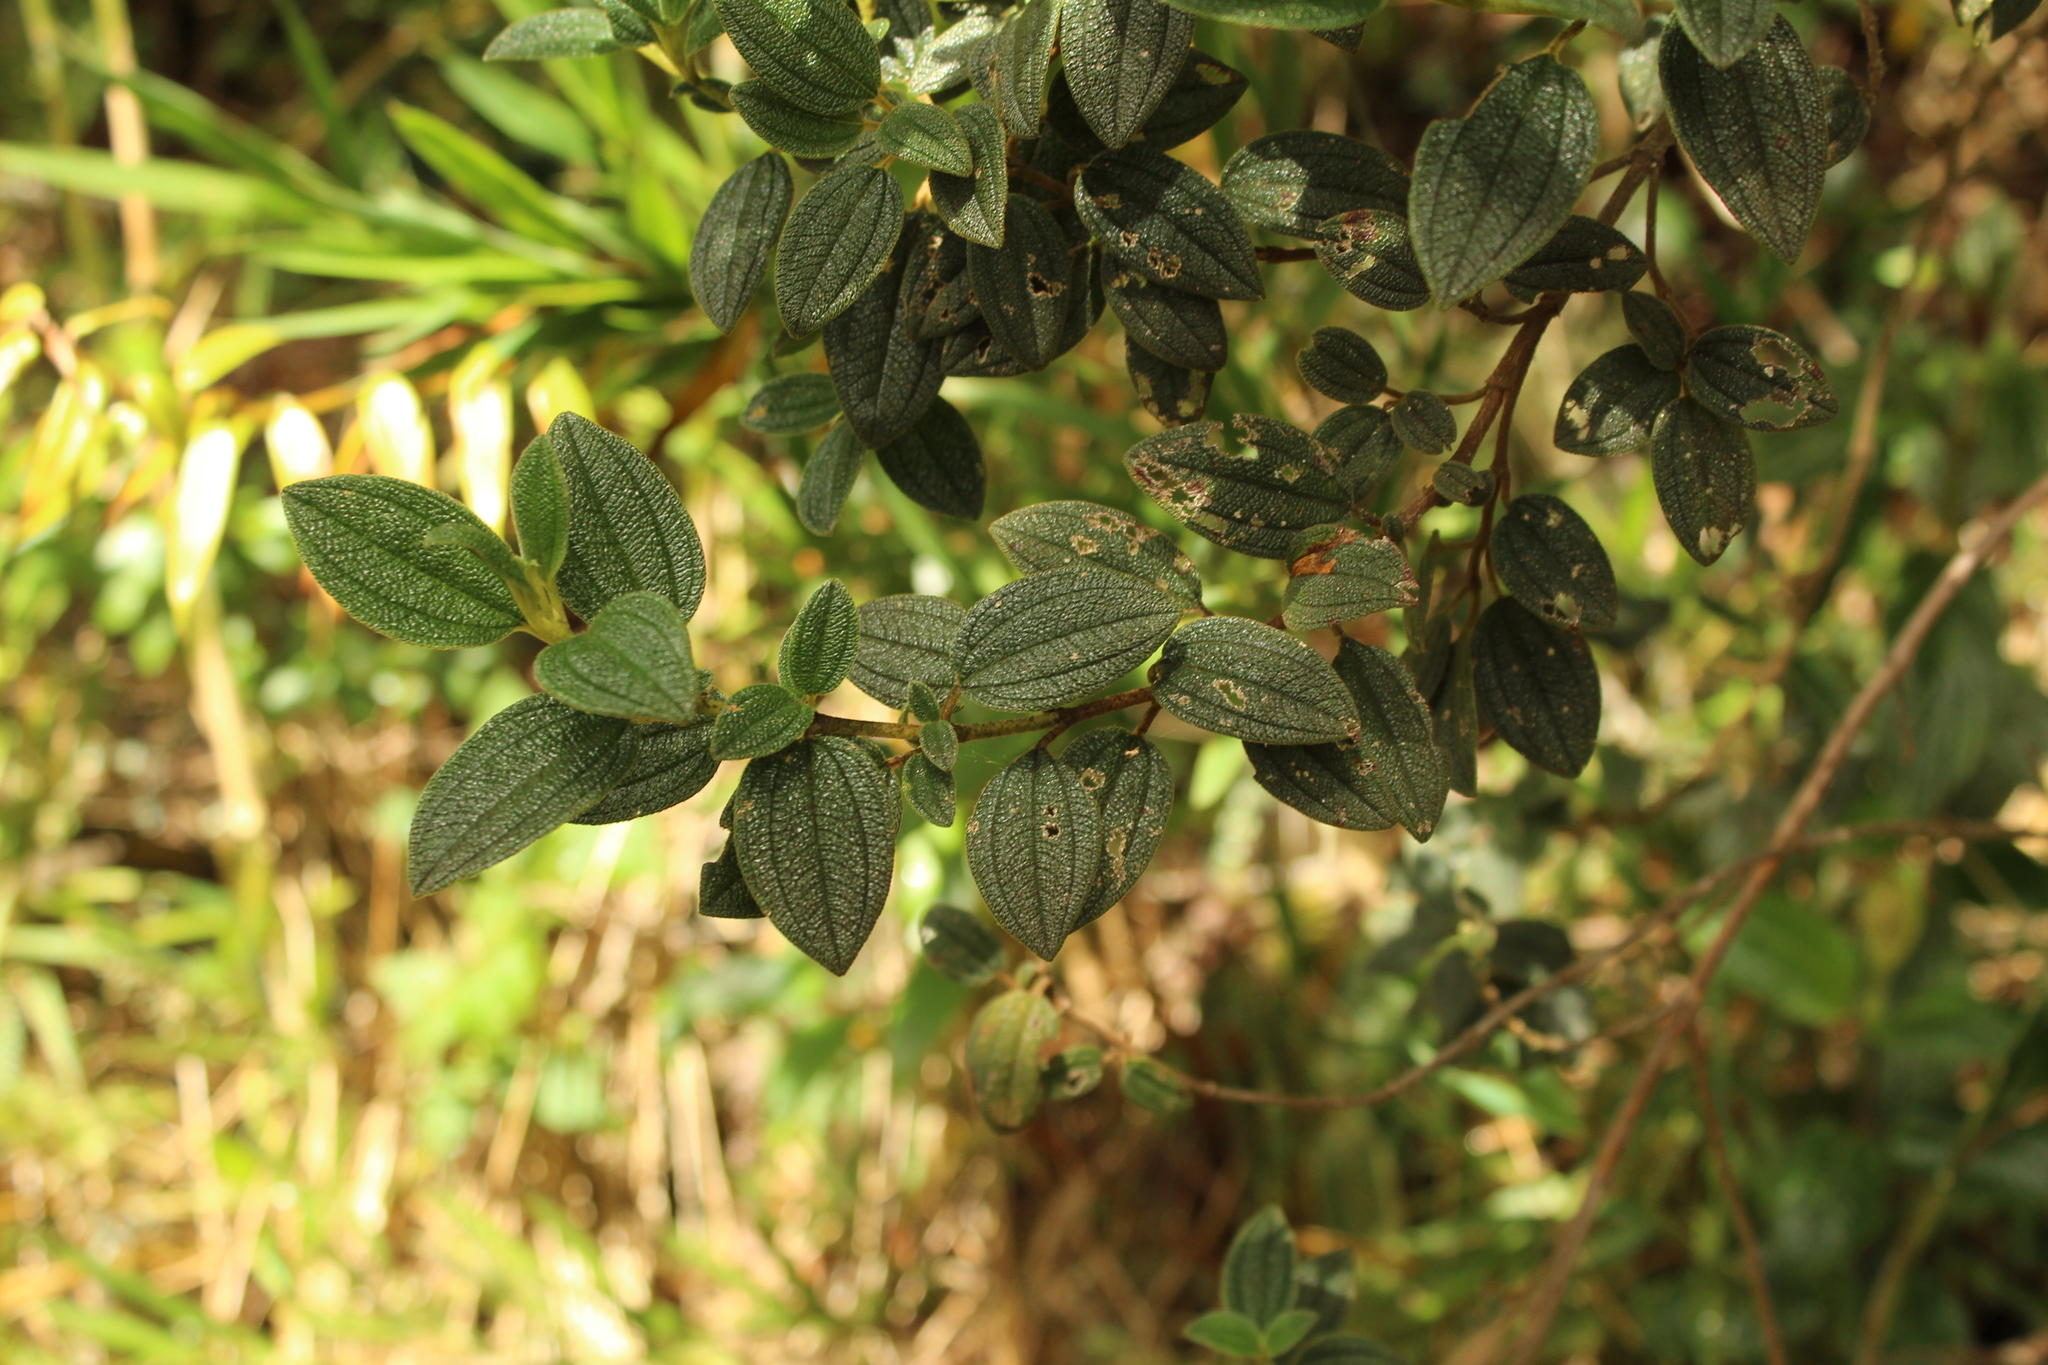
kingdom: Plantae
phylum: Tracheophyta
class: Magnoliopsida
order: Myrtales
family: Melastomataceae
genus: Chaetogastra
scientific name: Chaetogastra grossa
